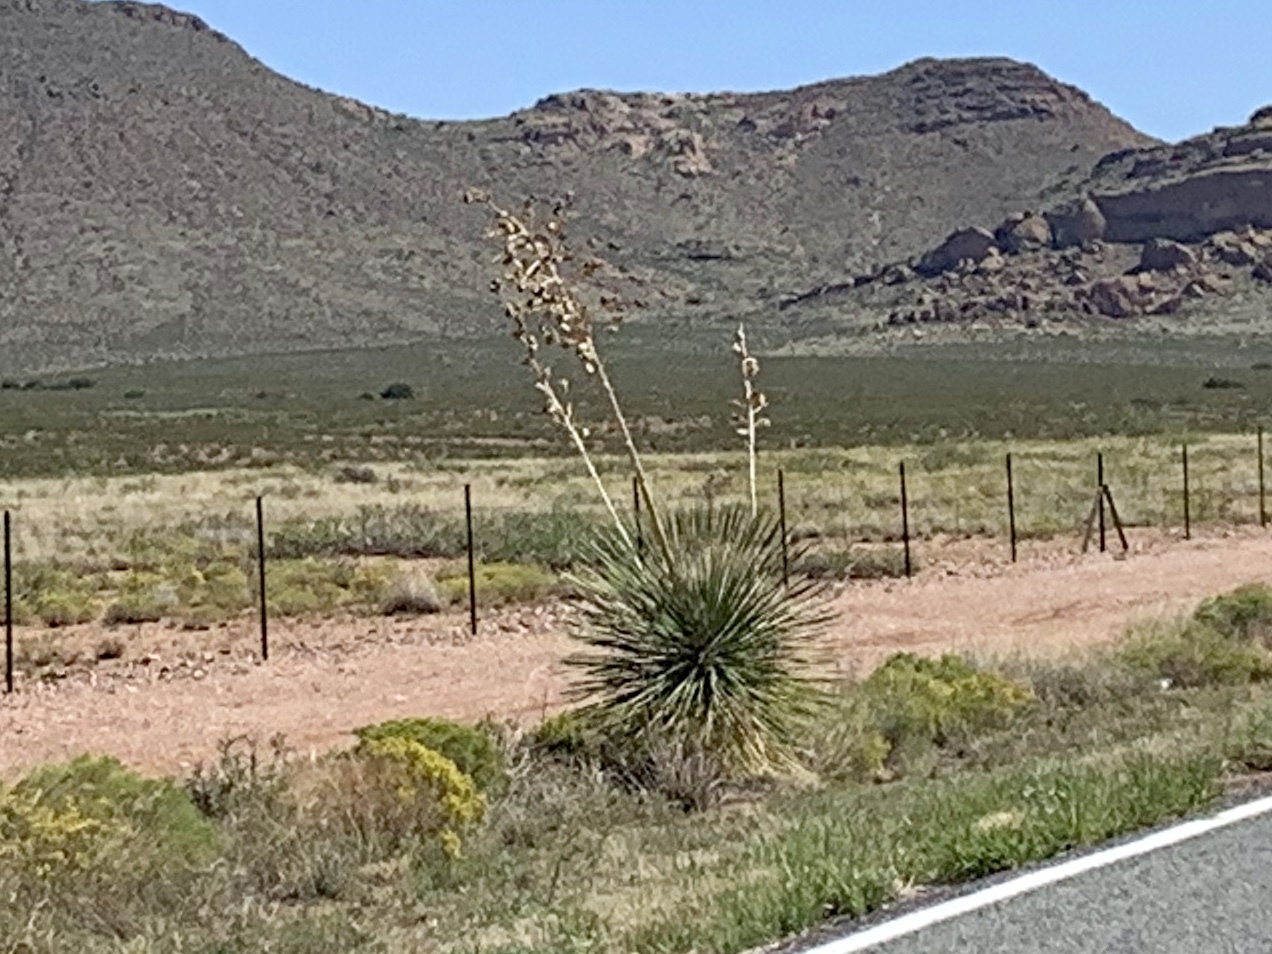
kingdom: Plantae
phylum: Tracheophyta
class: Liliopsida
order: Asparagales
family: Asparagaceae
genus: Yucca
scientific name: Yucca elata
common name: Palmella
